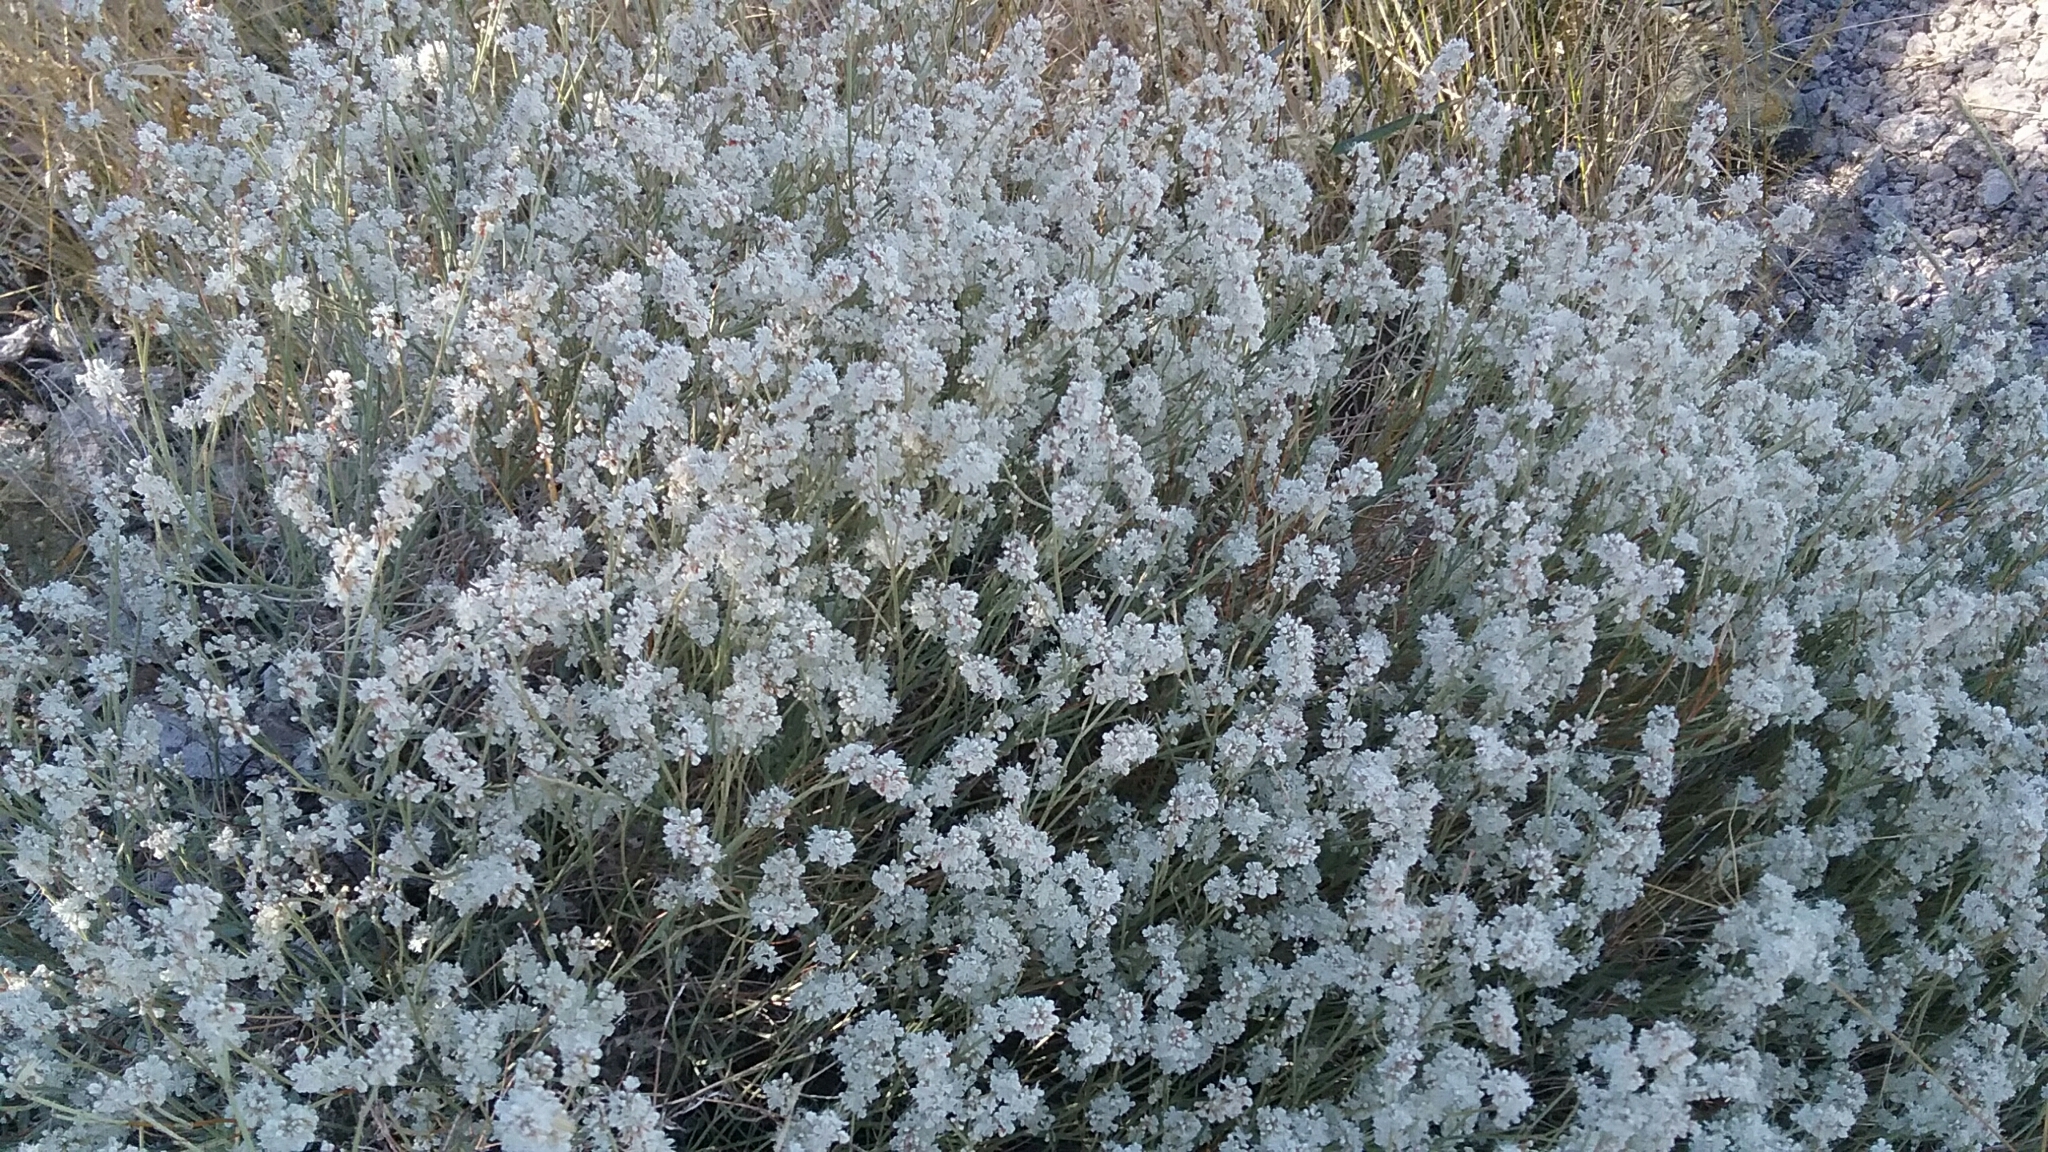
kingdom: Plantae
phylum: Tracheophyta
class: Magnoliopsida
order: Caryophyllales
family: Polygonaceae
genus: Eriogonum
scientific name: Eriogonum wrightii
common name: Bastard-sage
